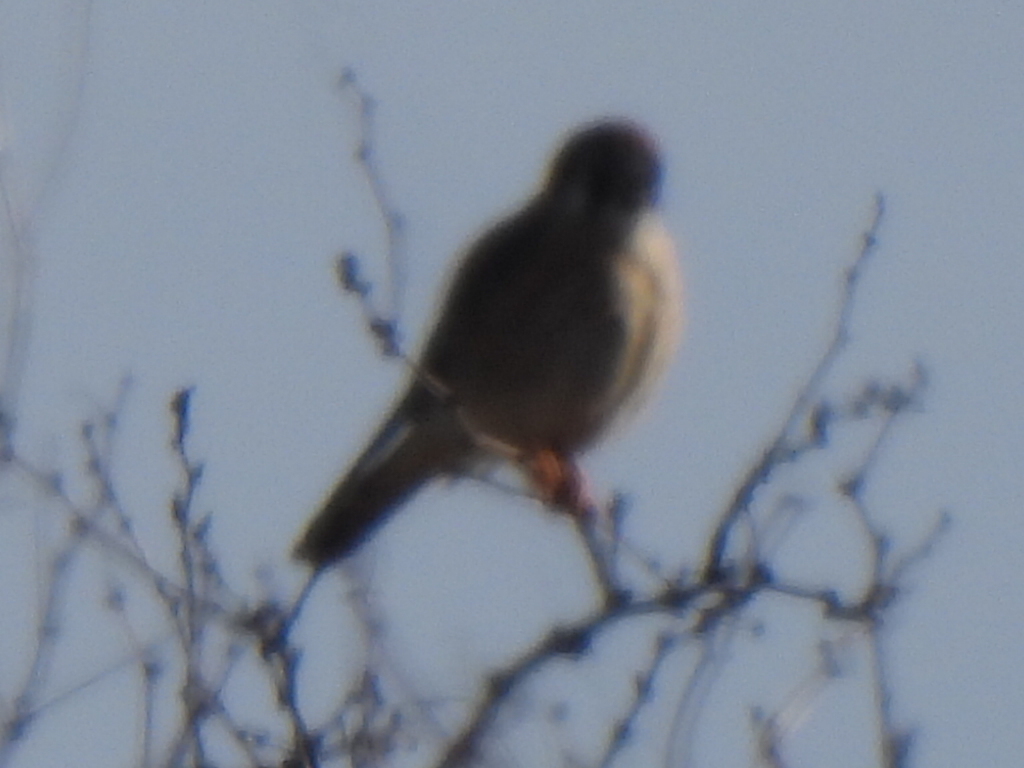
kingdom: Animalia
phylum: Chordata
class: Aves
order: Falconiformes
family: Falconidae
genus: Falco
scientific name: Falco sparverius
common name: American kestrel
